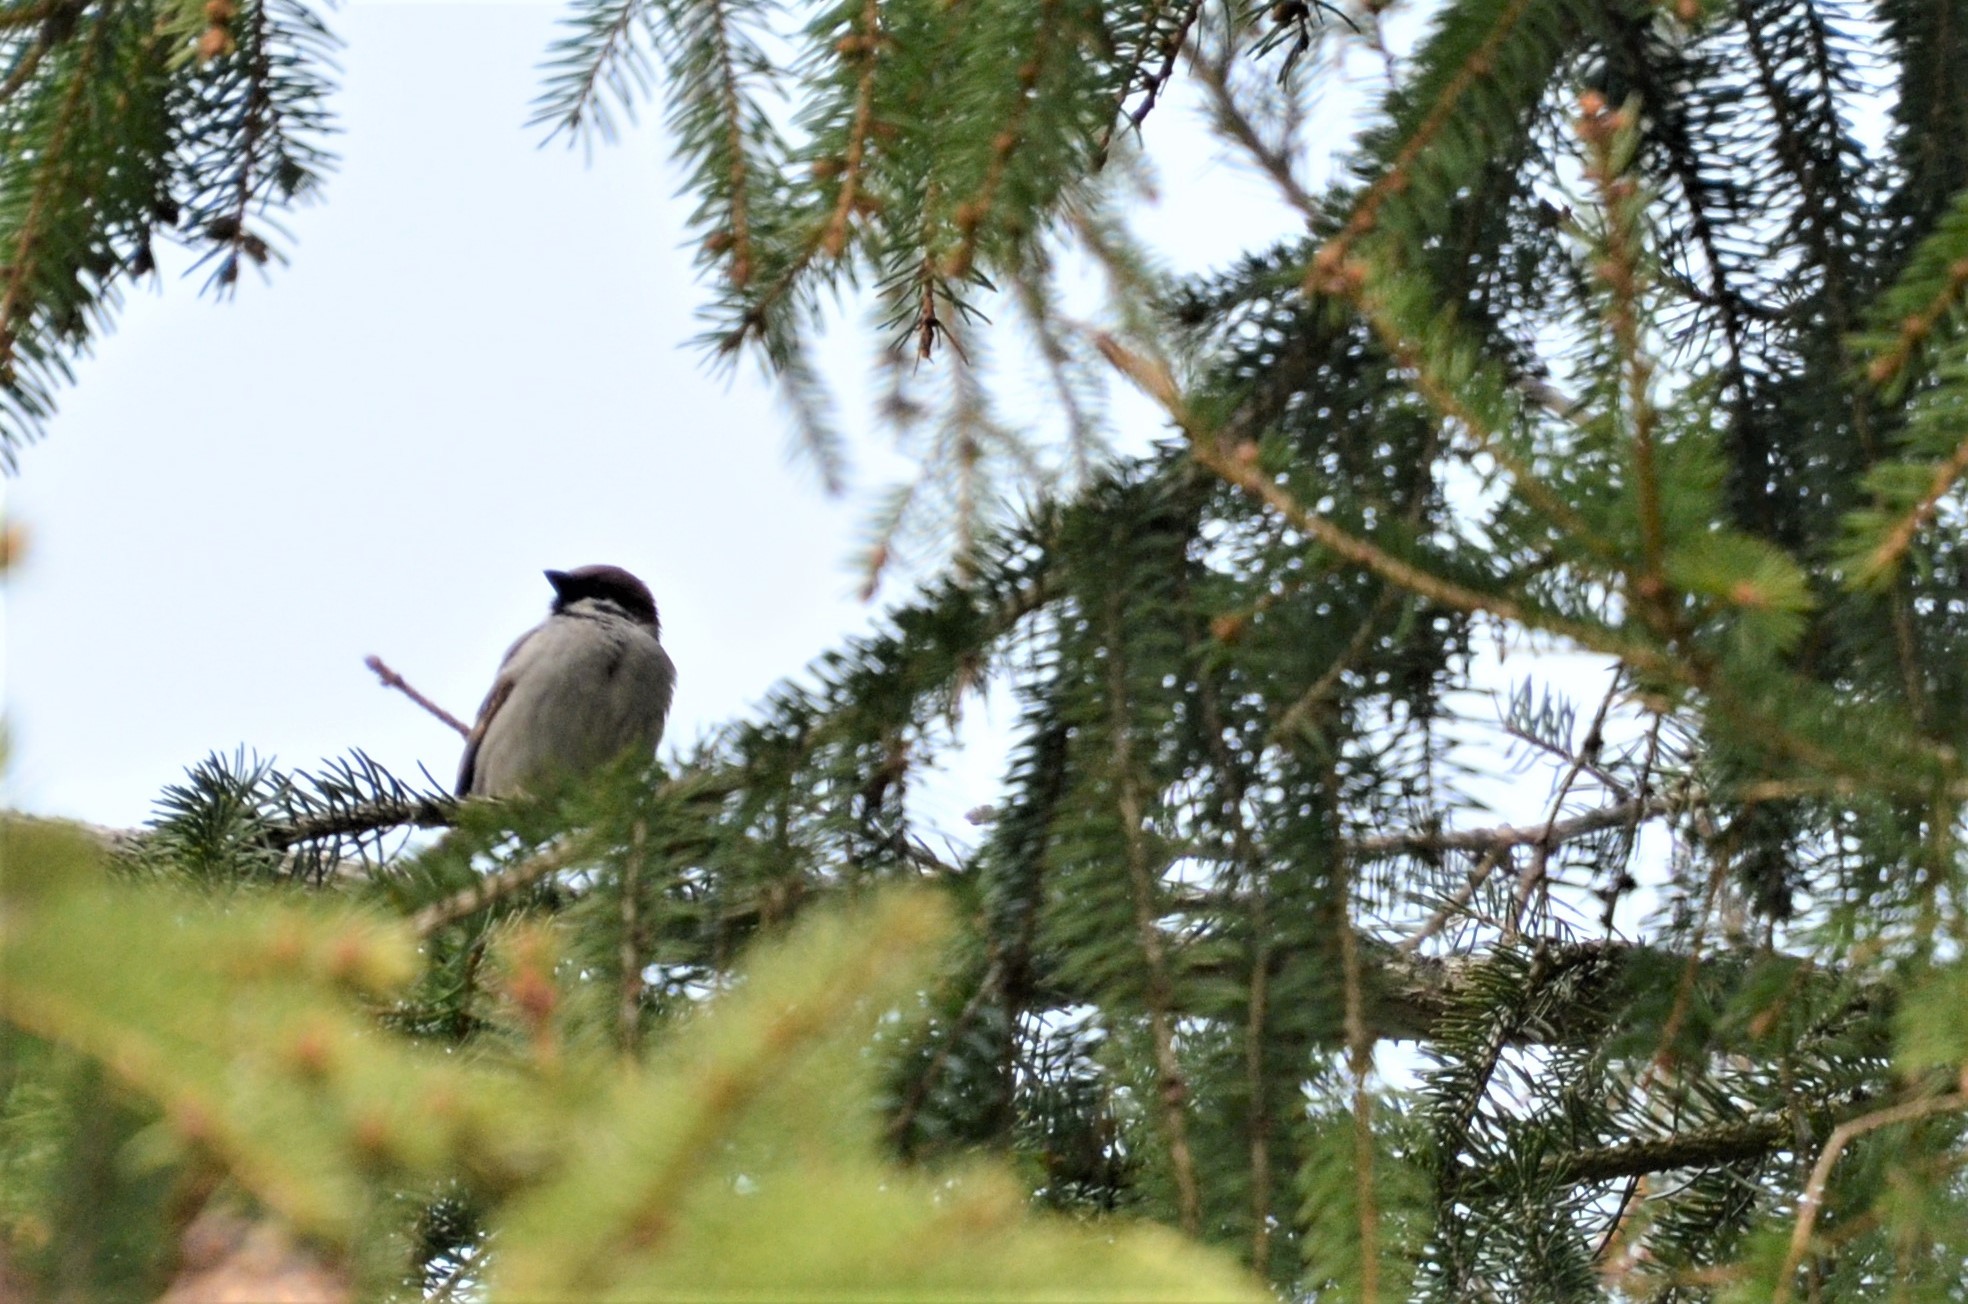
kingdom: Animalia
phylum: Chordata
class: Aves
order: Passeriformes
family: Passeridae
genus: Passer
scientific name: Passer montanus
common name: Eurasian tree sparrow
